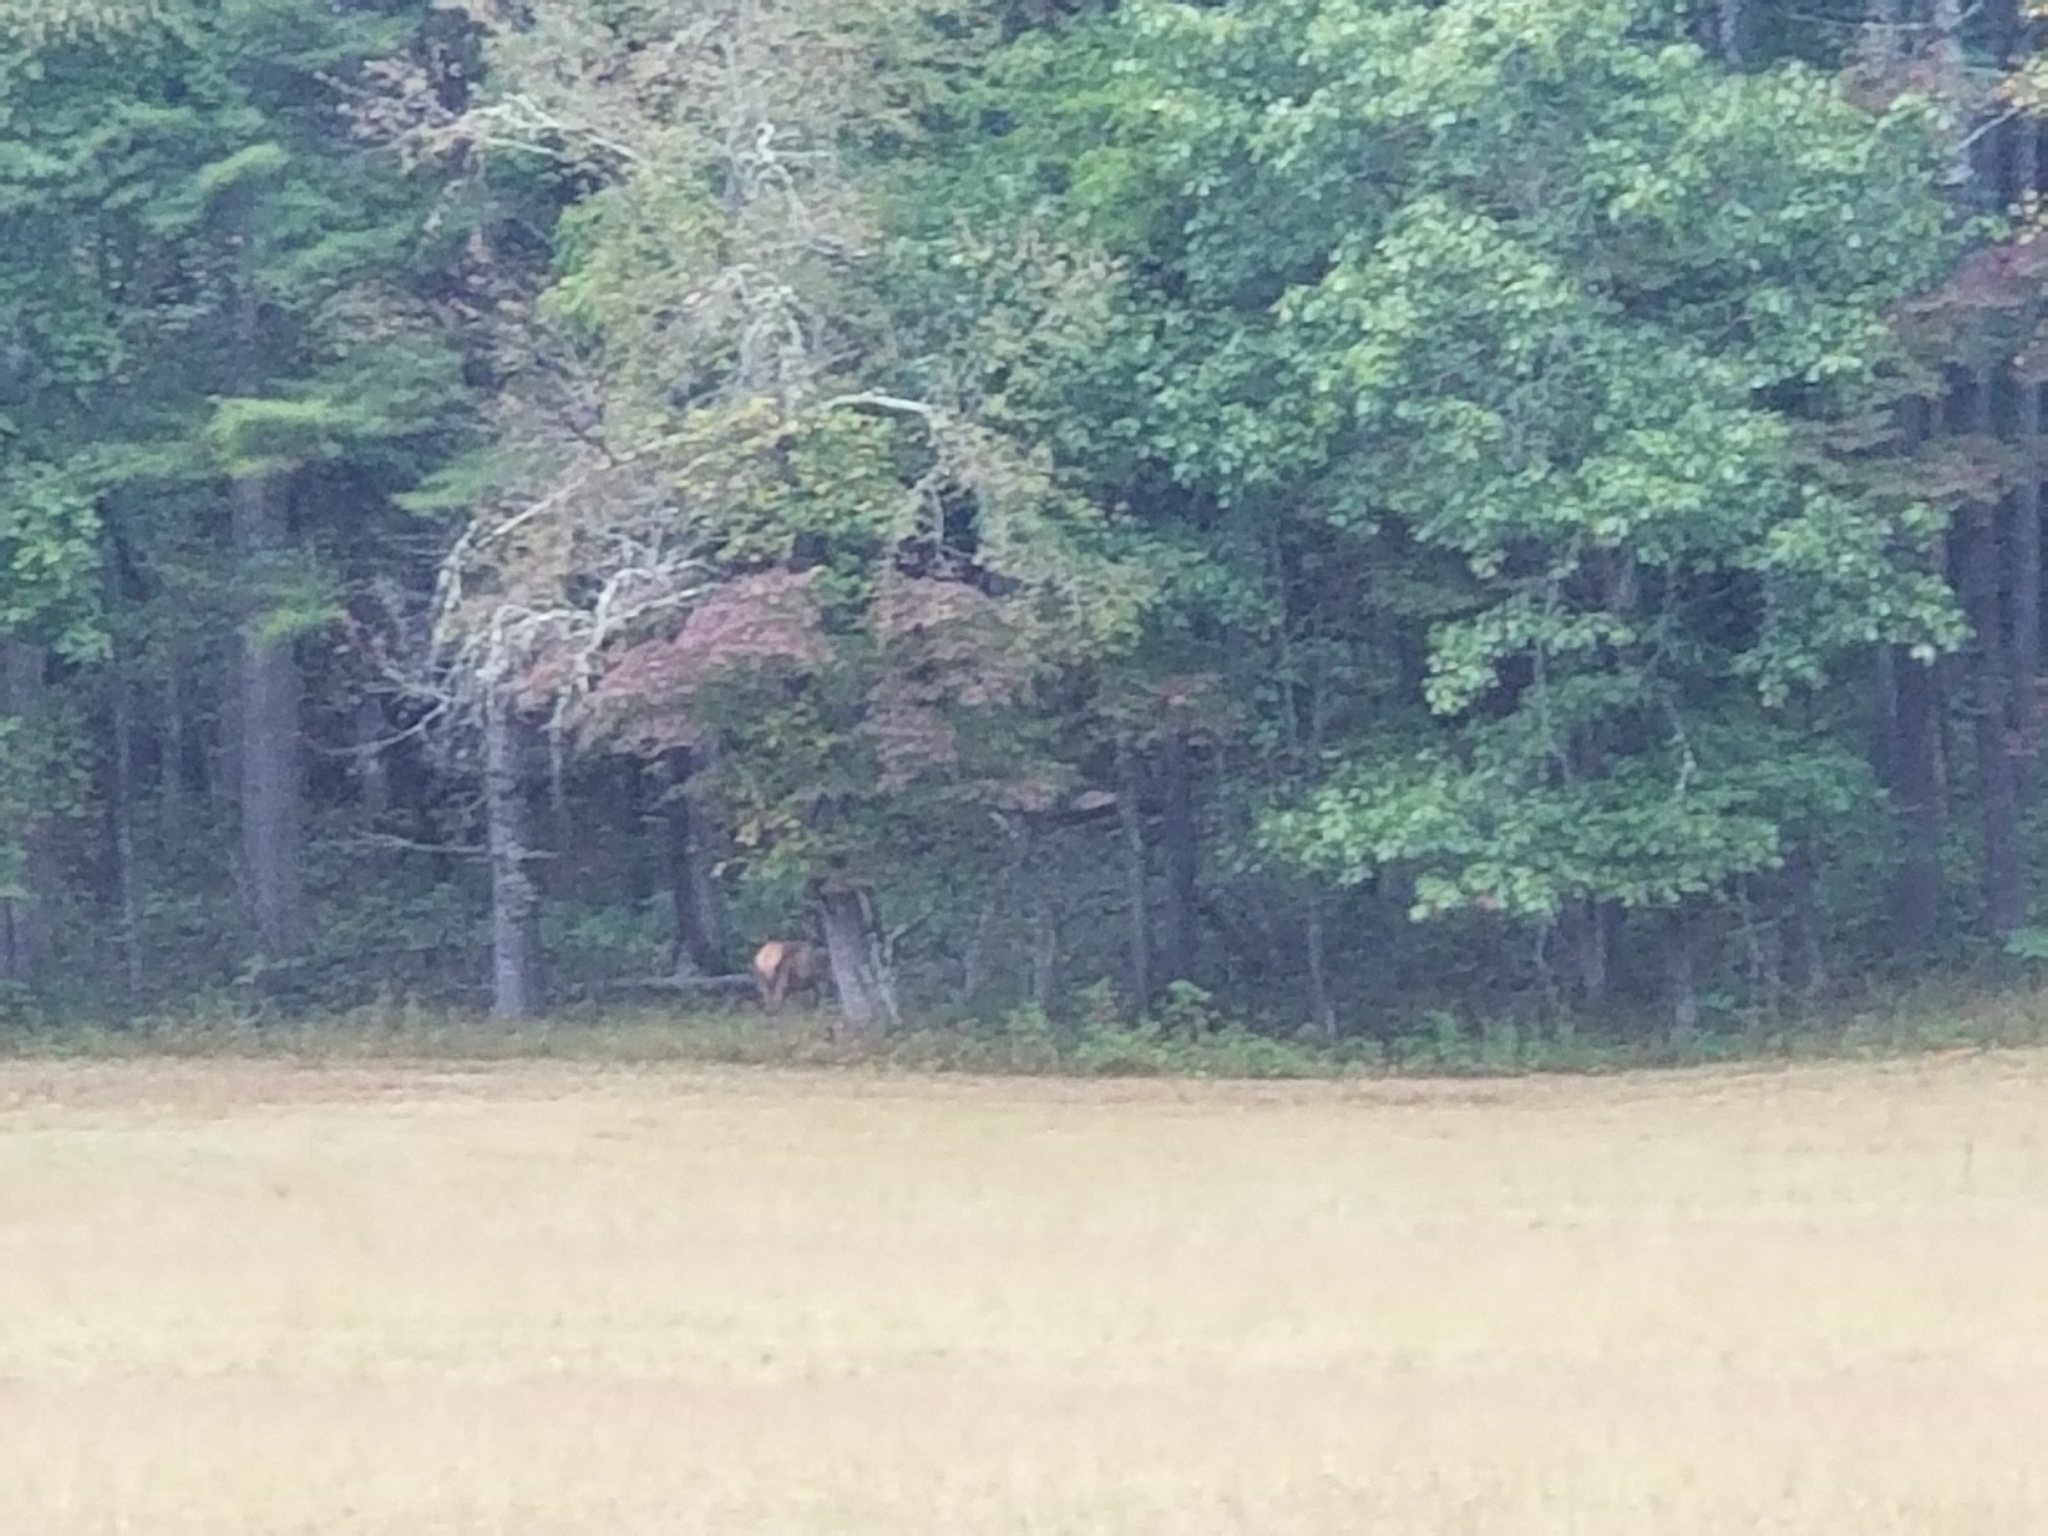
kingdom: Animalia
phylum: Chordata
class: Mammalia
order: Artiodactyla
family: Cervidae
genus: Cervus
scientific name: Cervus elaphus
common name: Red deer
